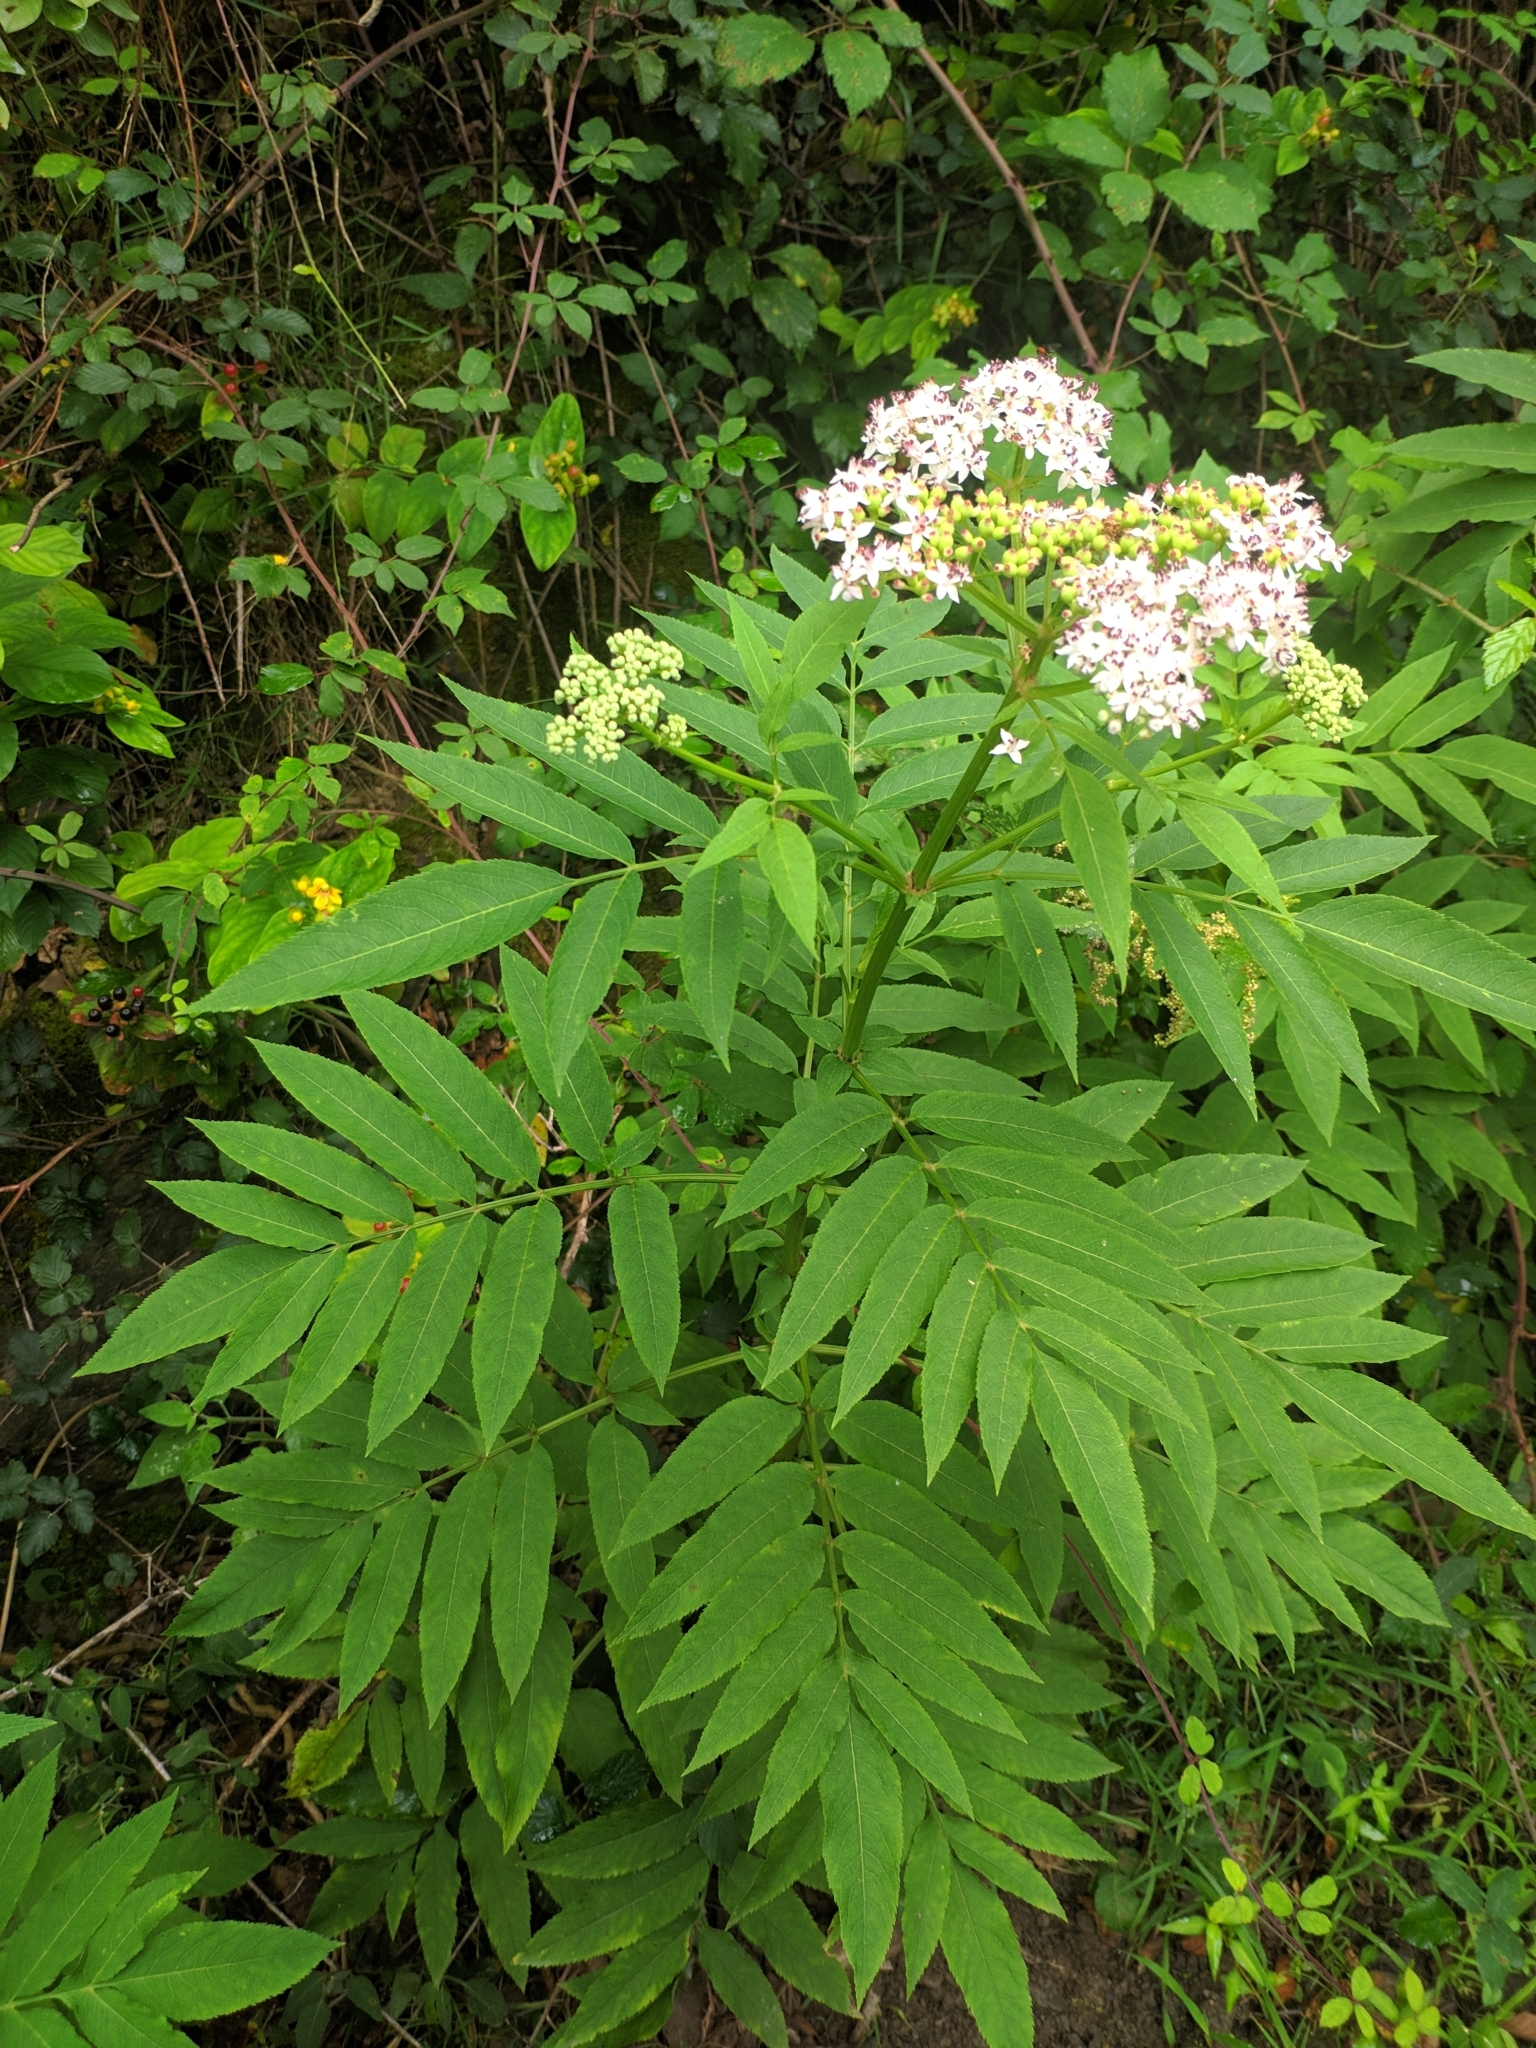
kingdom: Plantae
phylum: Tracheophyta
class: Magnoliopsida
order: Dipsacales
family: Viburnaceae
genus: Sambucus
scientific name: Sambucus ebulus
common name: Dwarf elder
